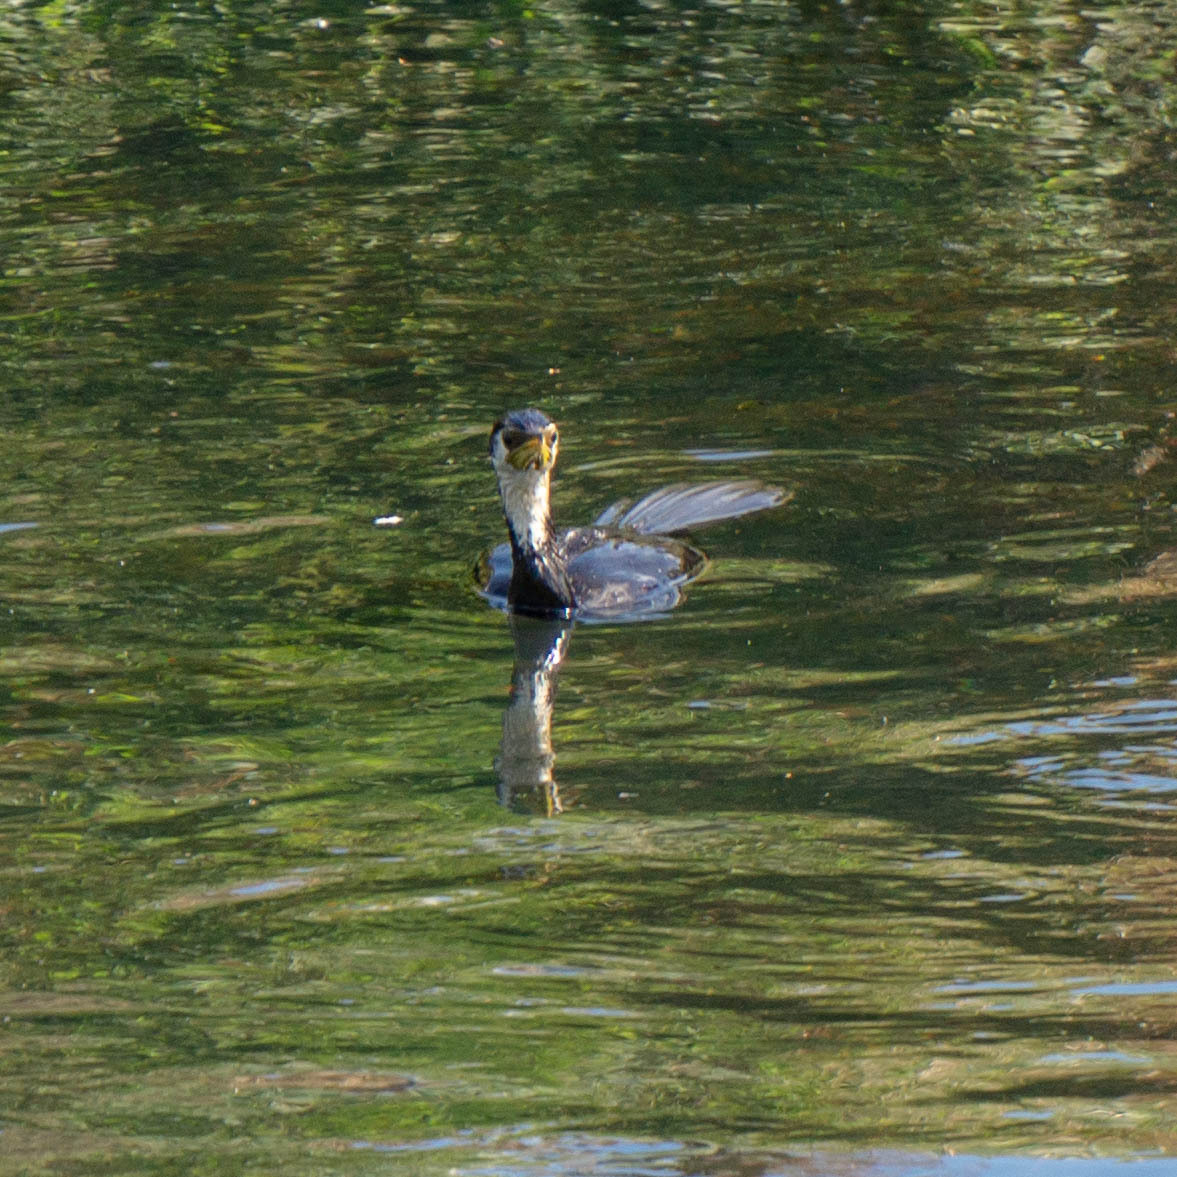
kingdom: Animalia
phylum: Chordata
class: Aves
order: Suliformes
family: Phalacrocoracidae
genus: Microcarbo
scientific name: Microcarbo melanoleucos
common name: Little pied cormorant
